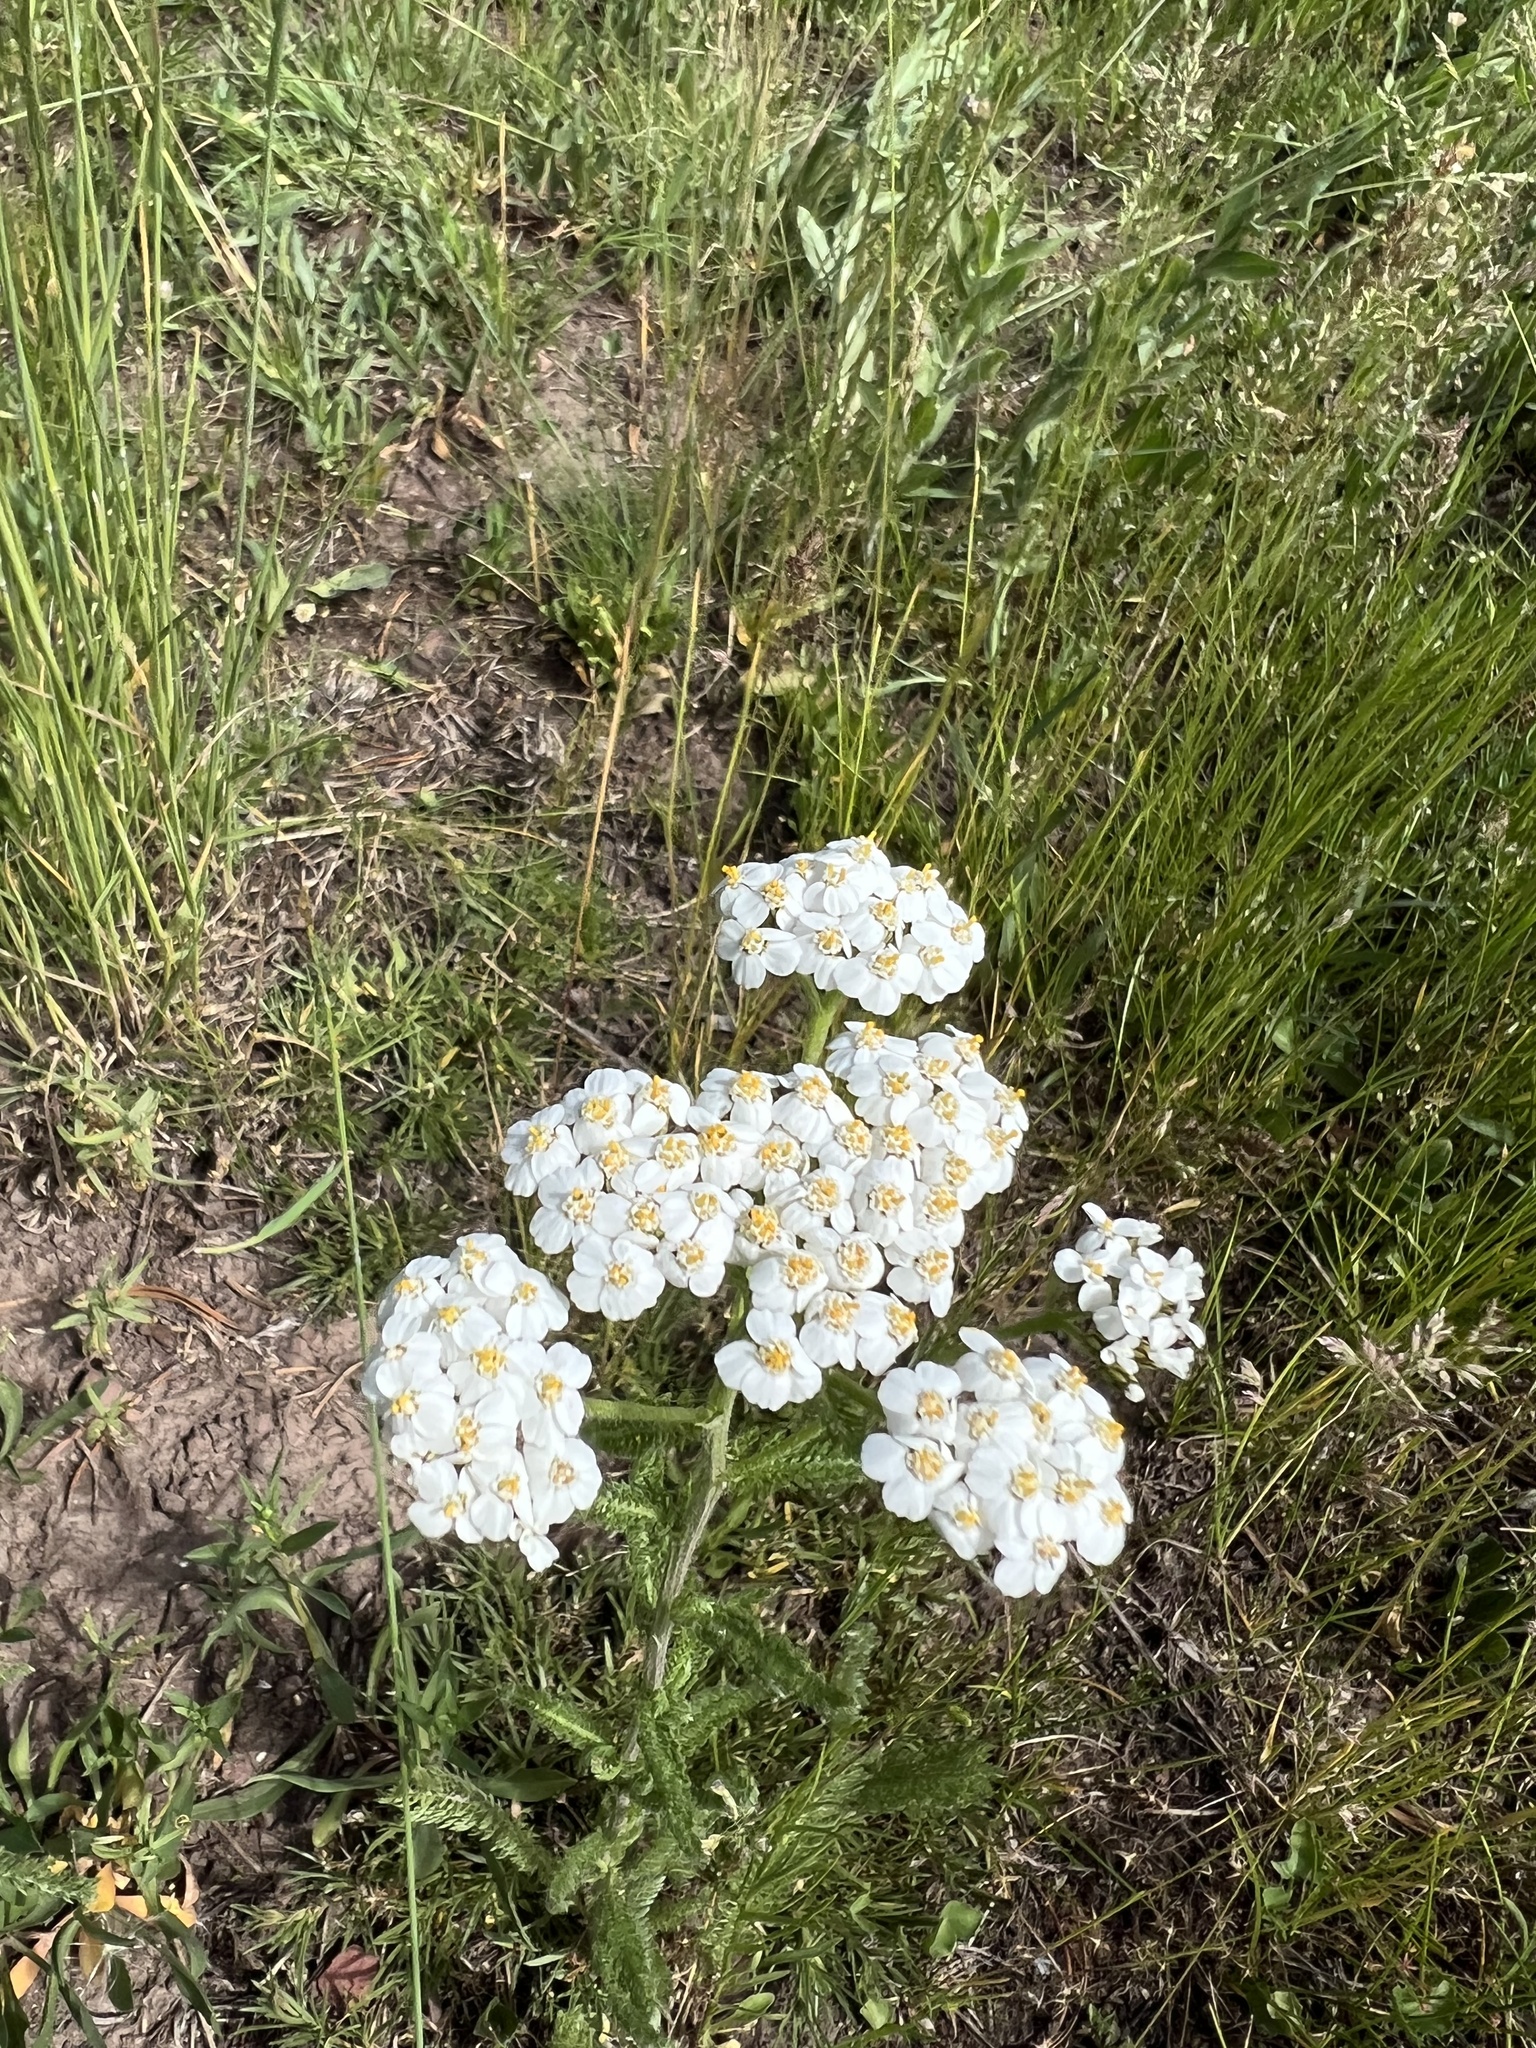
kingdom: Plantae
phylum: Tracheophyta
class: Magnoliopsida
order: Asterales
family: Asteraceae
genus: Achillea
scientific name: Achillea millefolium
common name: Yarrow
